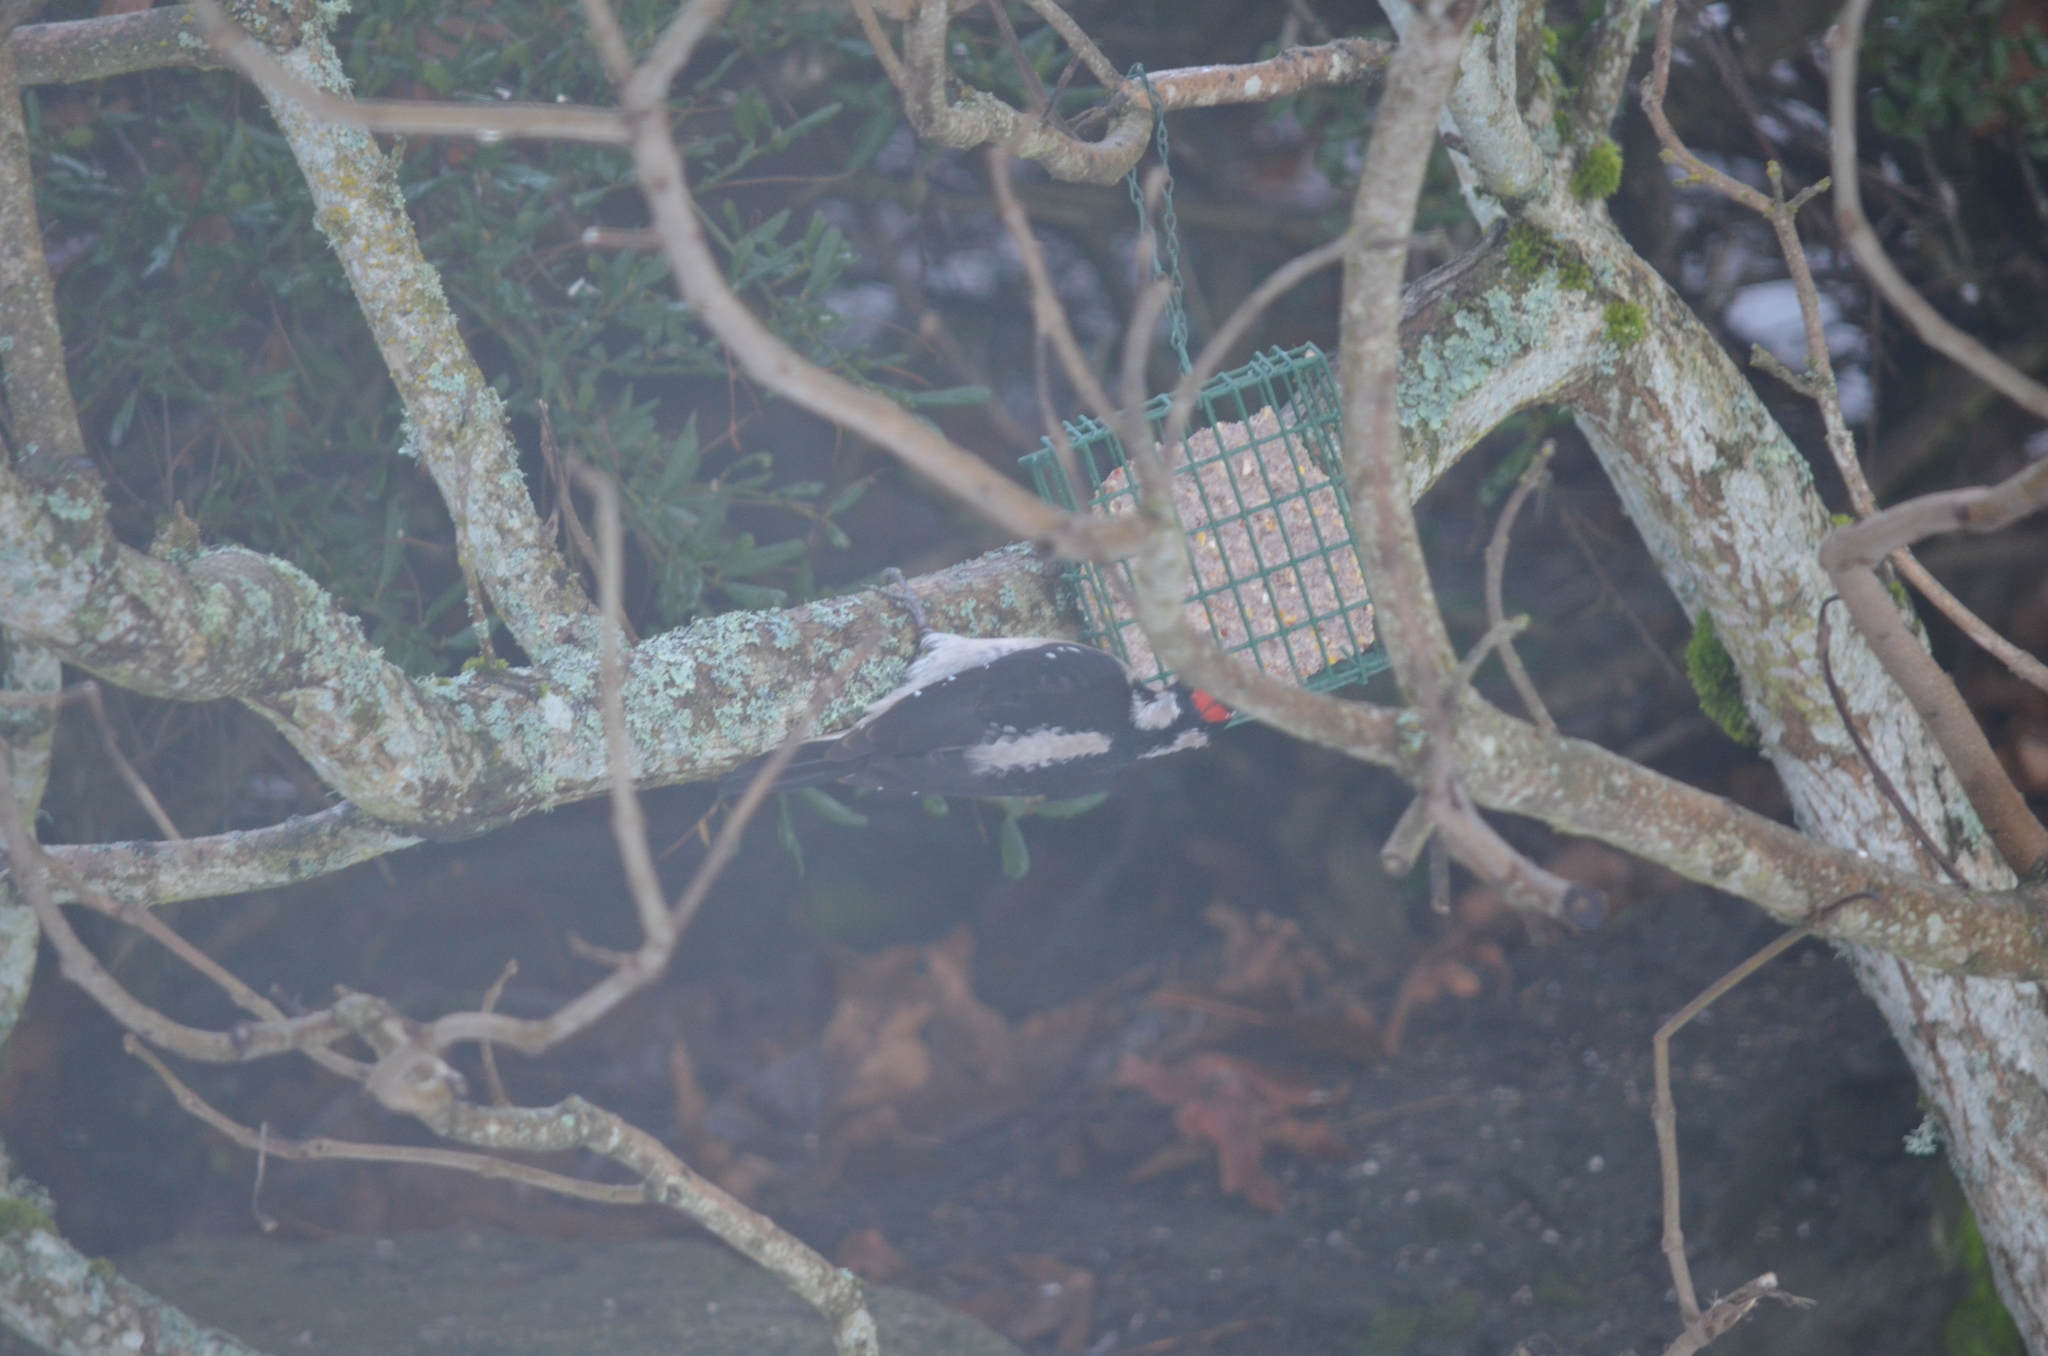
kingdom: Animalia
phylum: Chordata
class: Aves
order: Piciformes
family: Picidae
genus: Leuconotopicus
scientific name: Leuconotopicus villosus
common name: Hairy woodpecker
